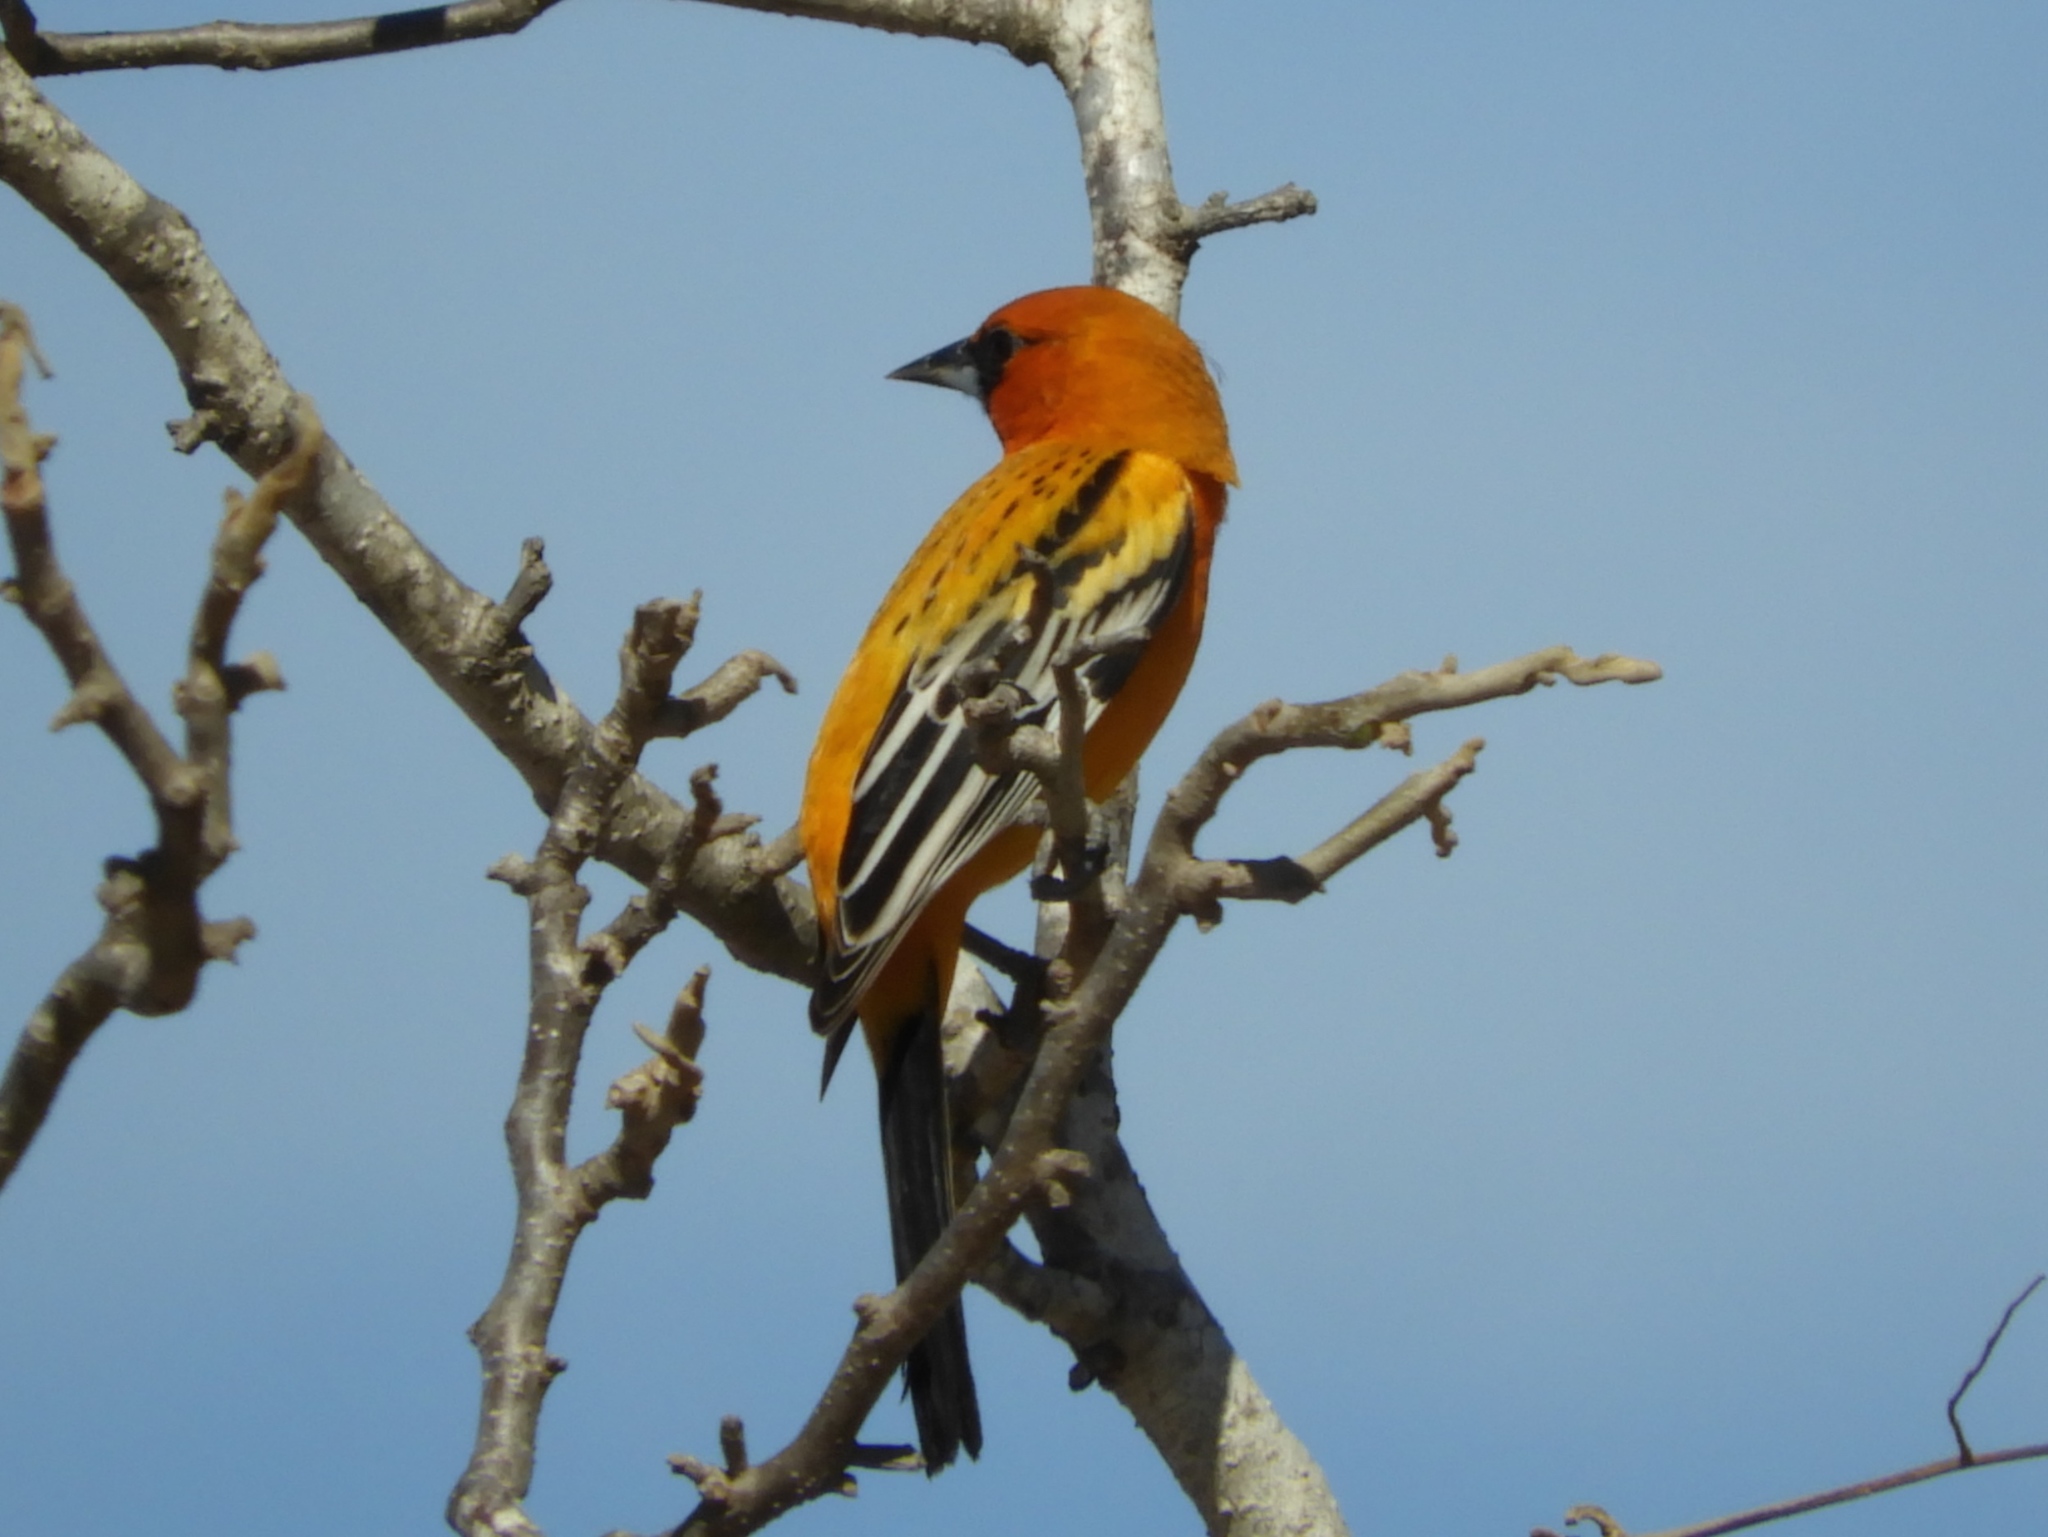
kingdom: Animalia
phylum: Chordata
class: Aves
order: Passeriformes
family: Icteridae
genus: Icterus
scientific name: Icterus pustulatus
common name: Streak-backed oriole
